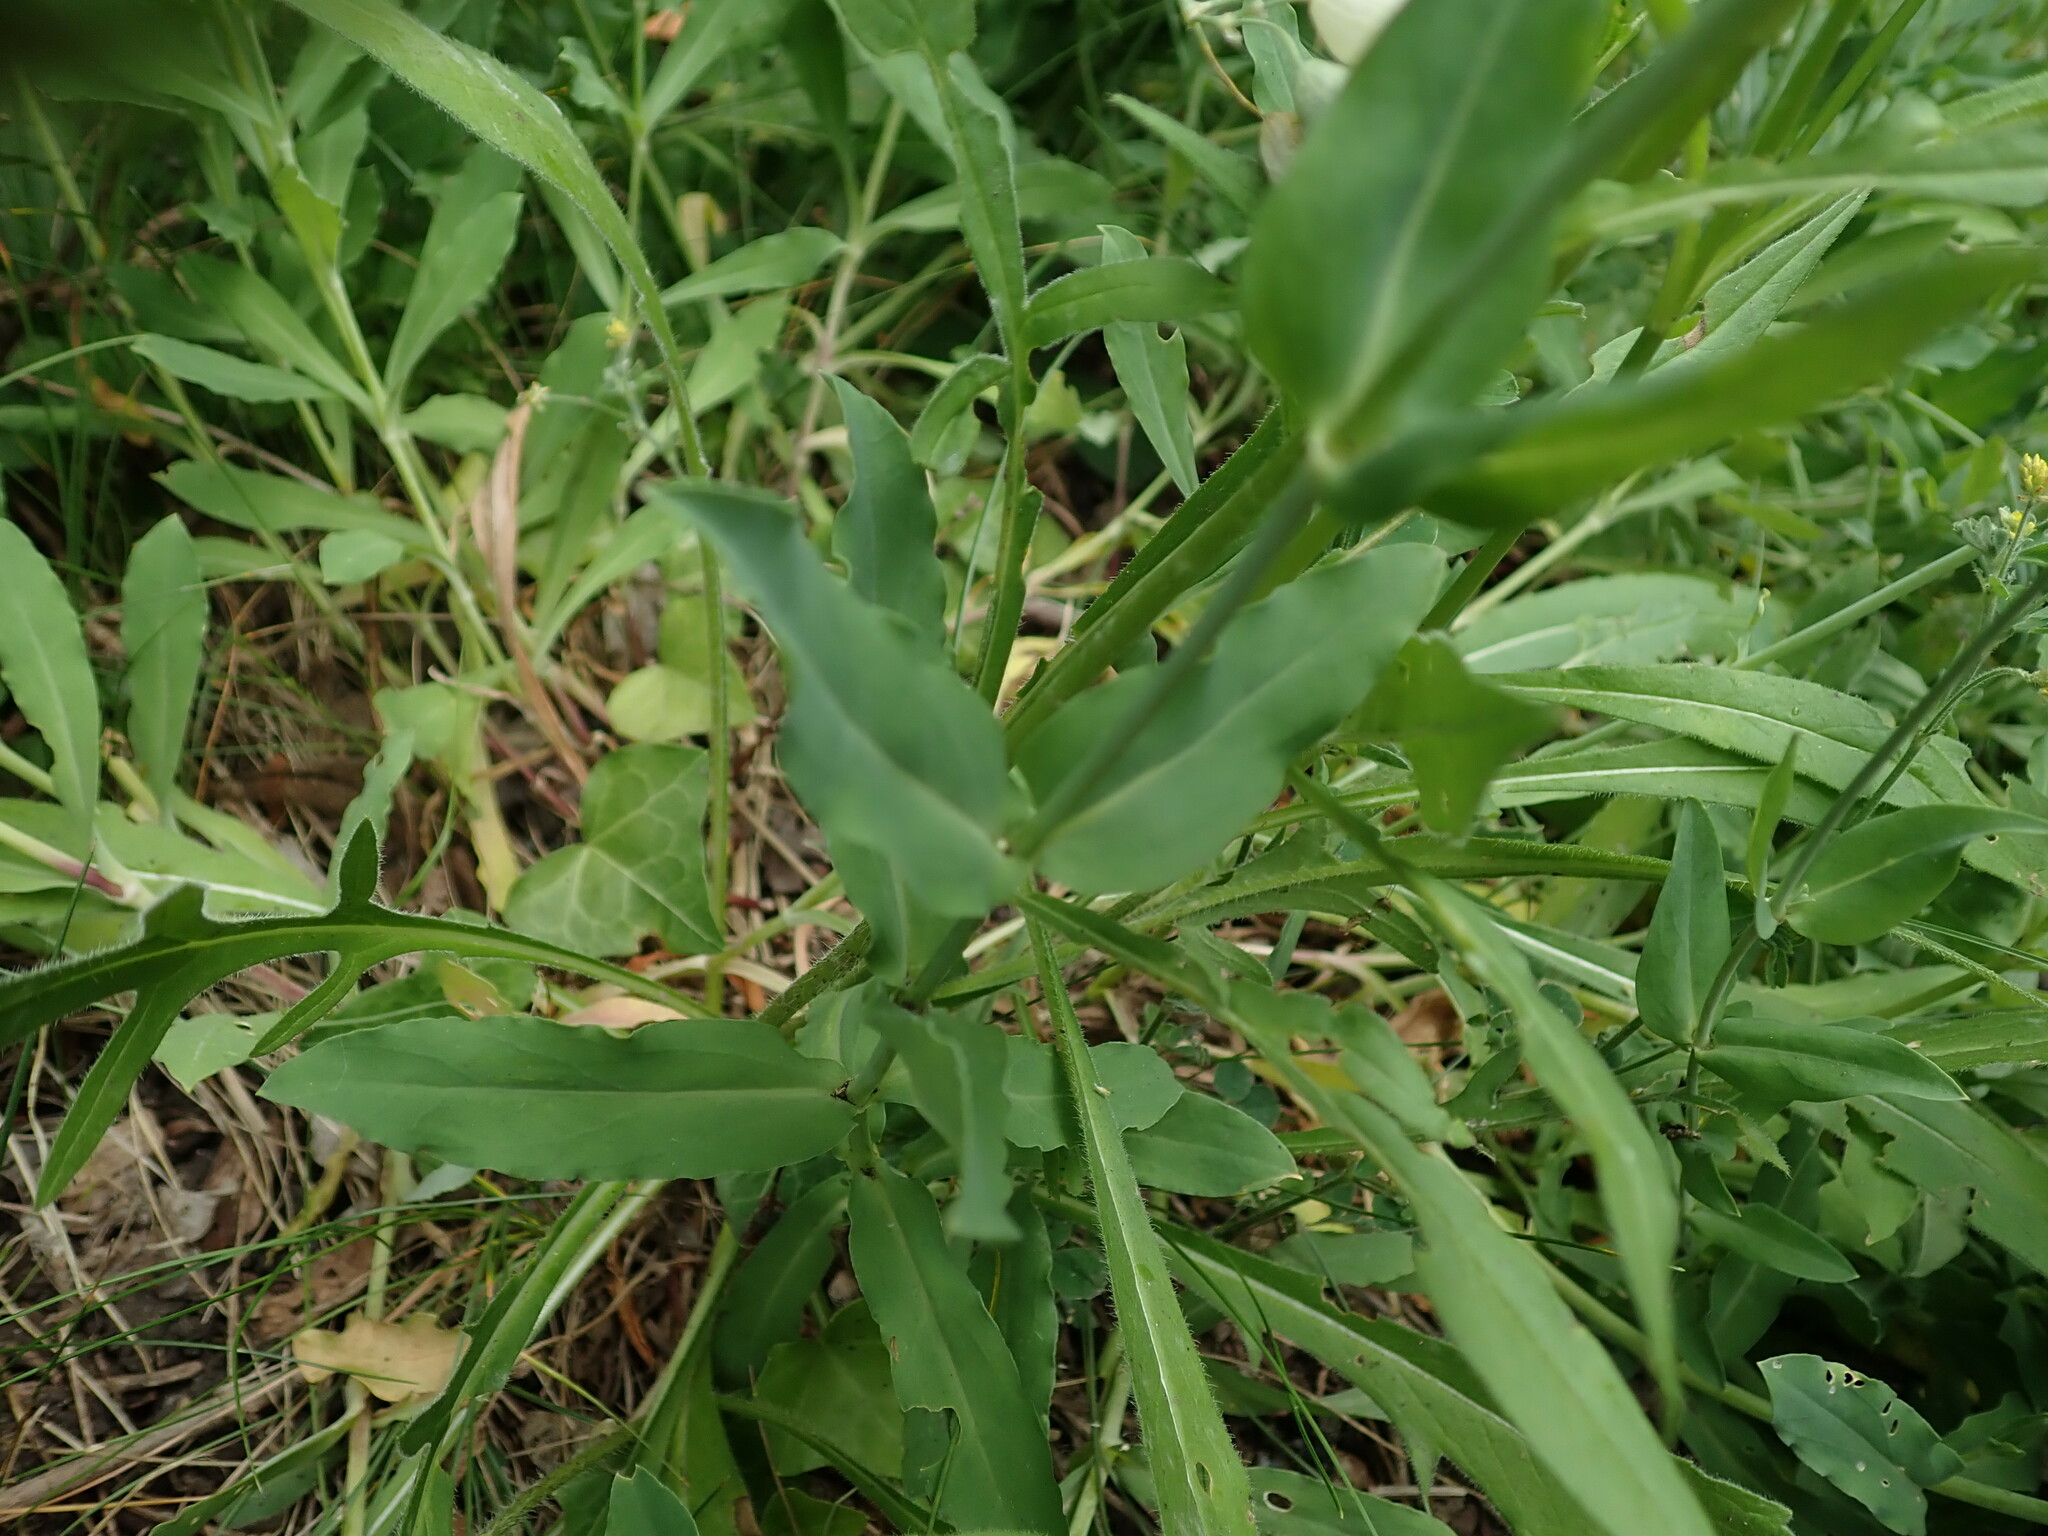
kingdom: Plantae
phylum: Tracheophyta
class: Magnoliopsida
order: Dipsacales
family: Caprifoliaceae
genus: Knautia
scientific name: Knautia arvensis
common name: Field scabiosa
